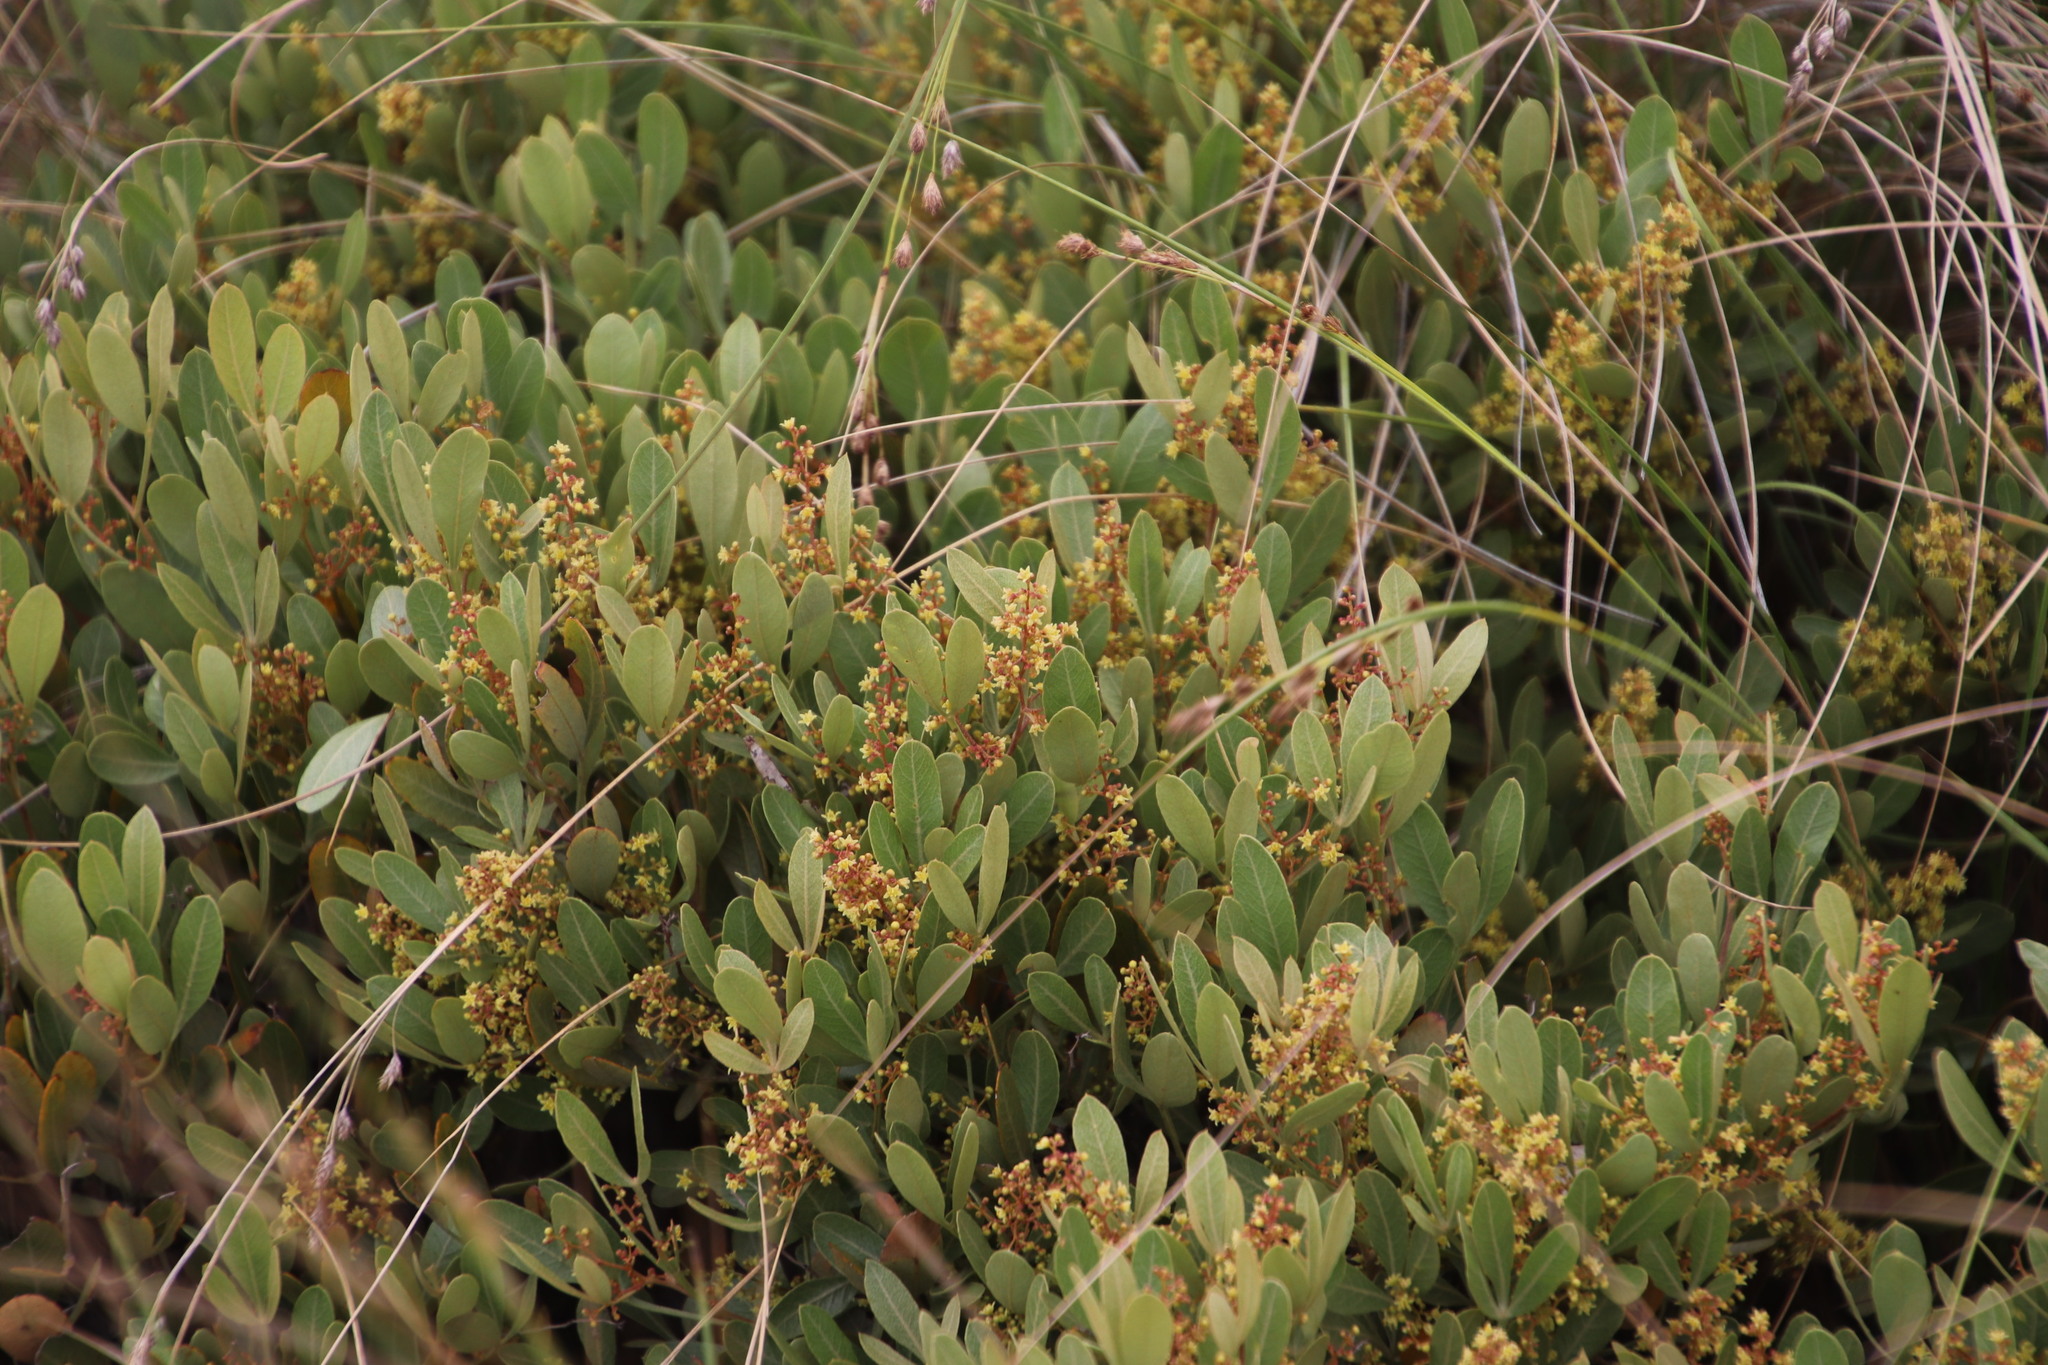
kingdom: Plantae
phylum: Tracheophyta
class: Magnoliopsida
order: Sapindales
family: Anacardiaceae
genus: Searsia
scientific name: Searsia magalismontana
